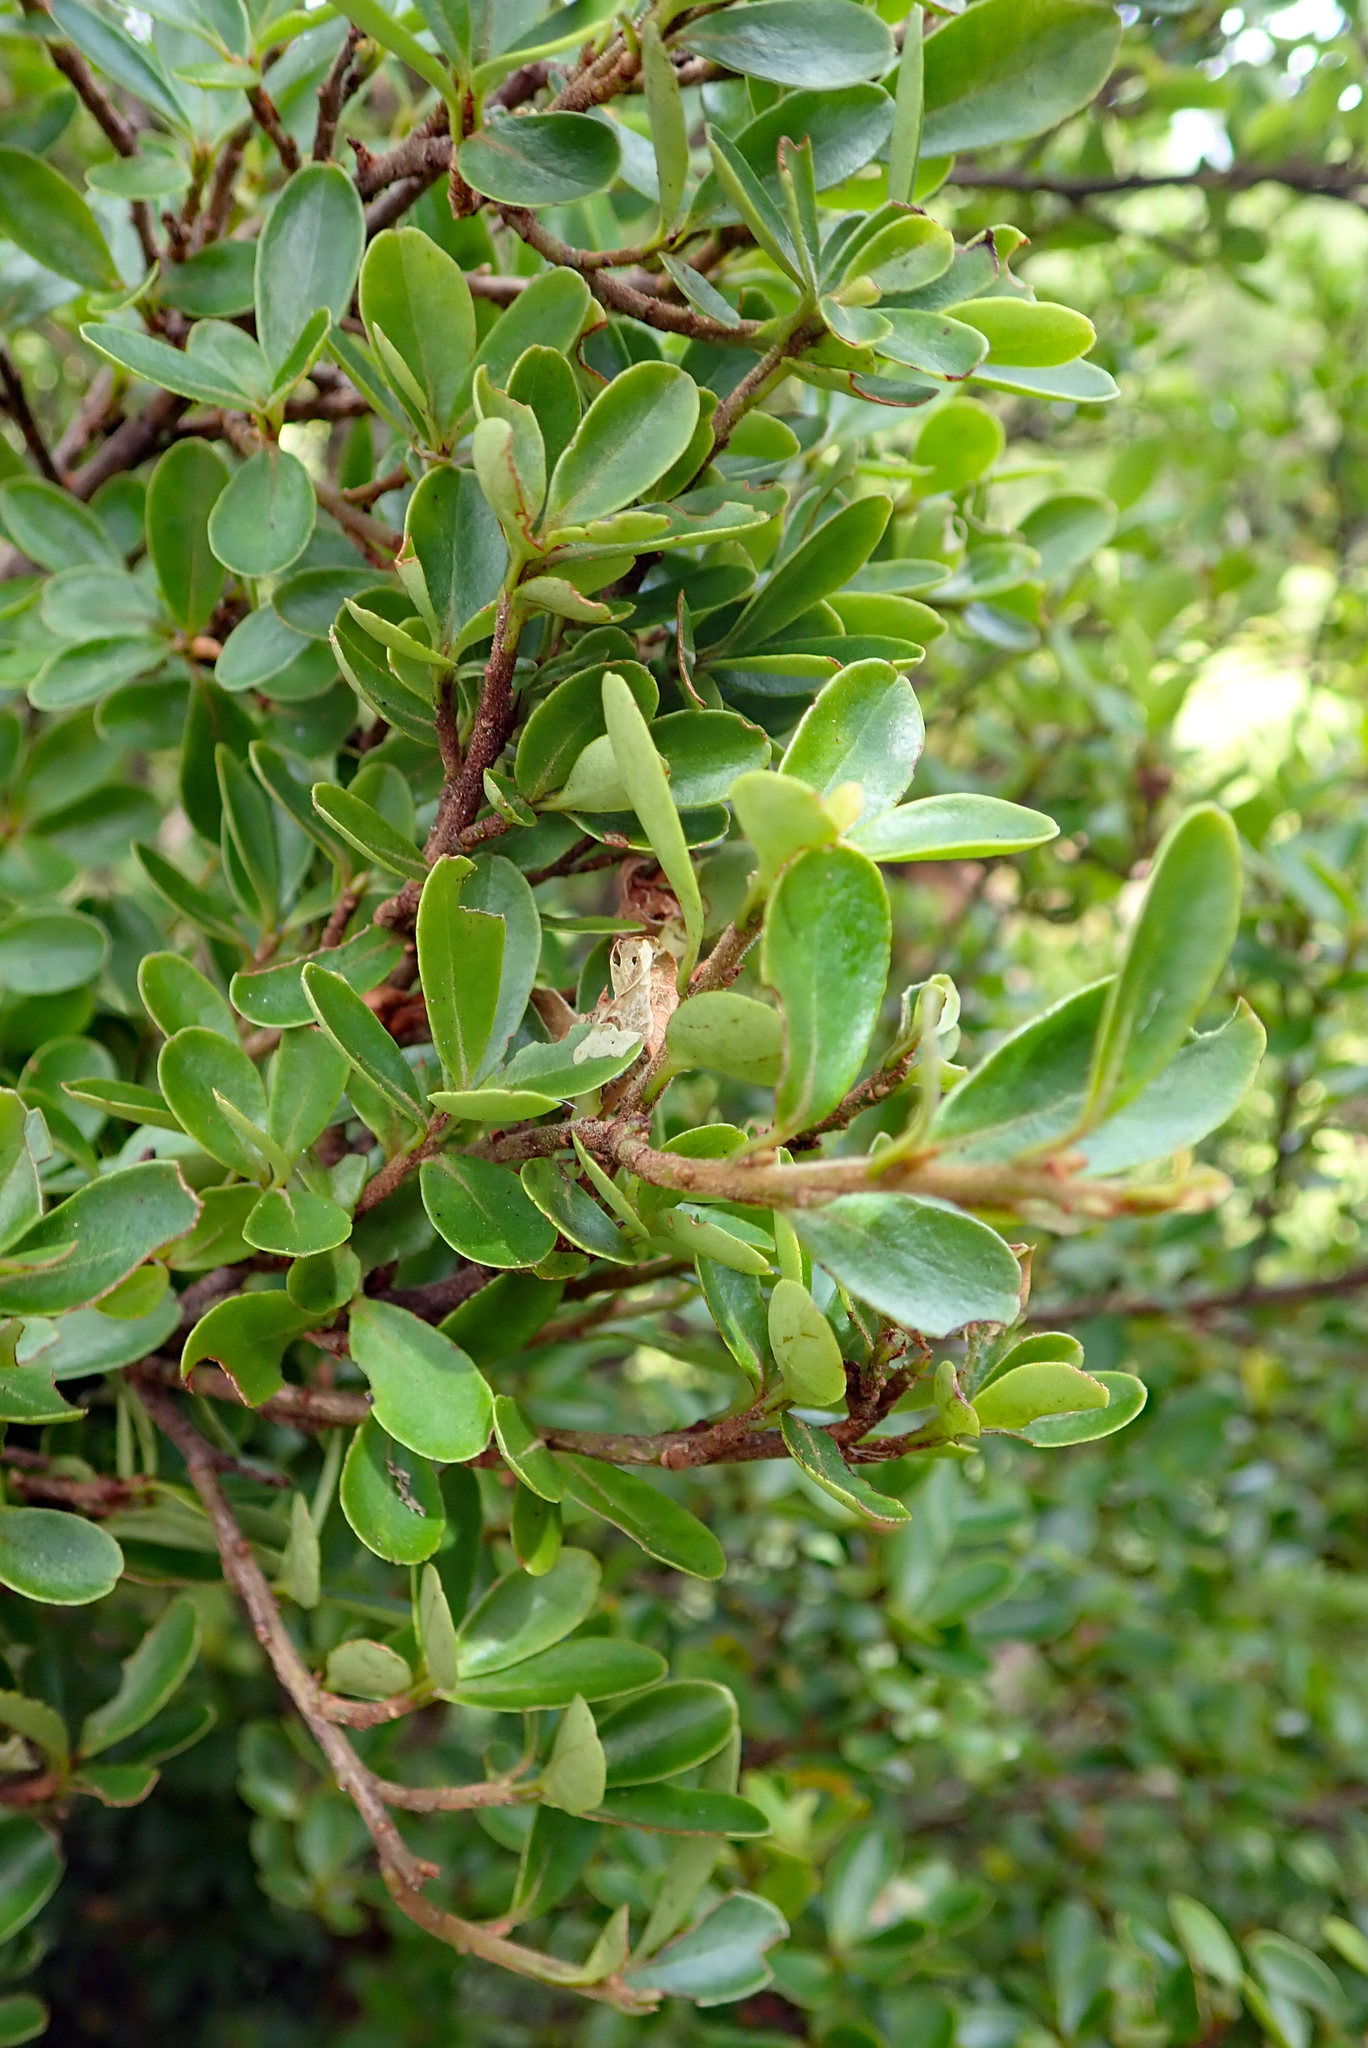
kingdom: Plantae
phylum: Tracheophyta
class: Magnoliopsida
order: Ericales
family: Primulaceae
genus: Myrsine
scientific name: Myrsine coxii
